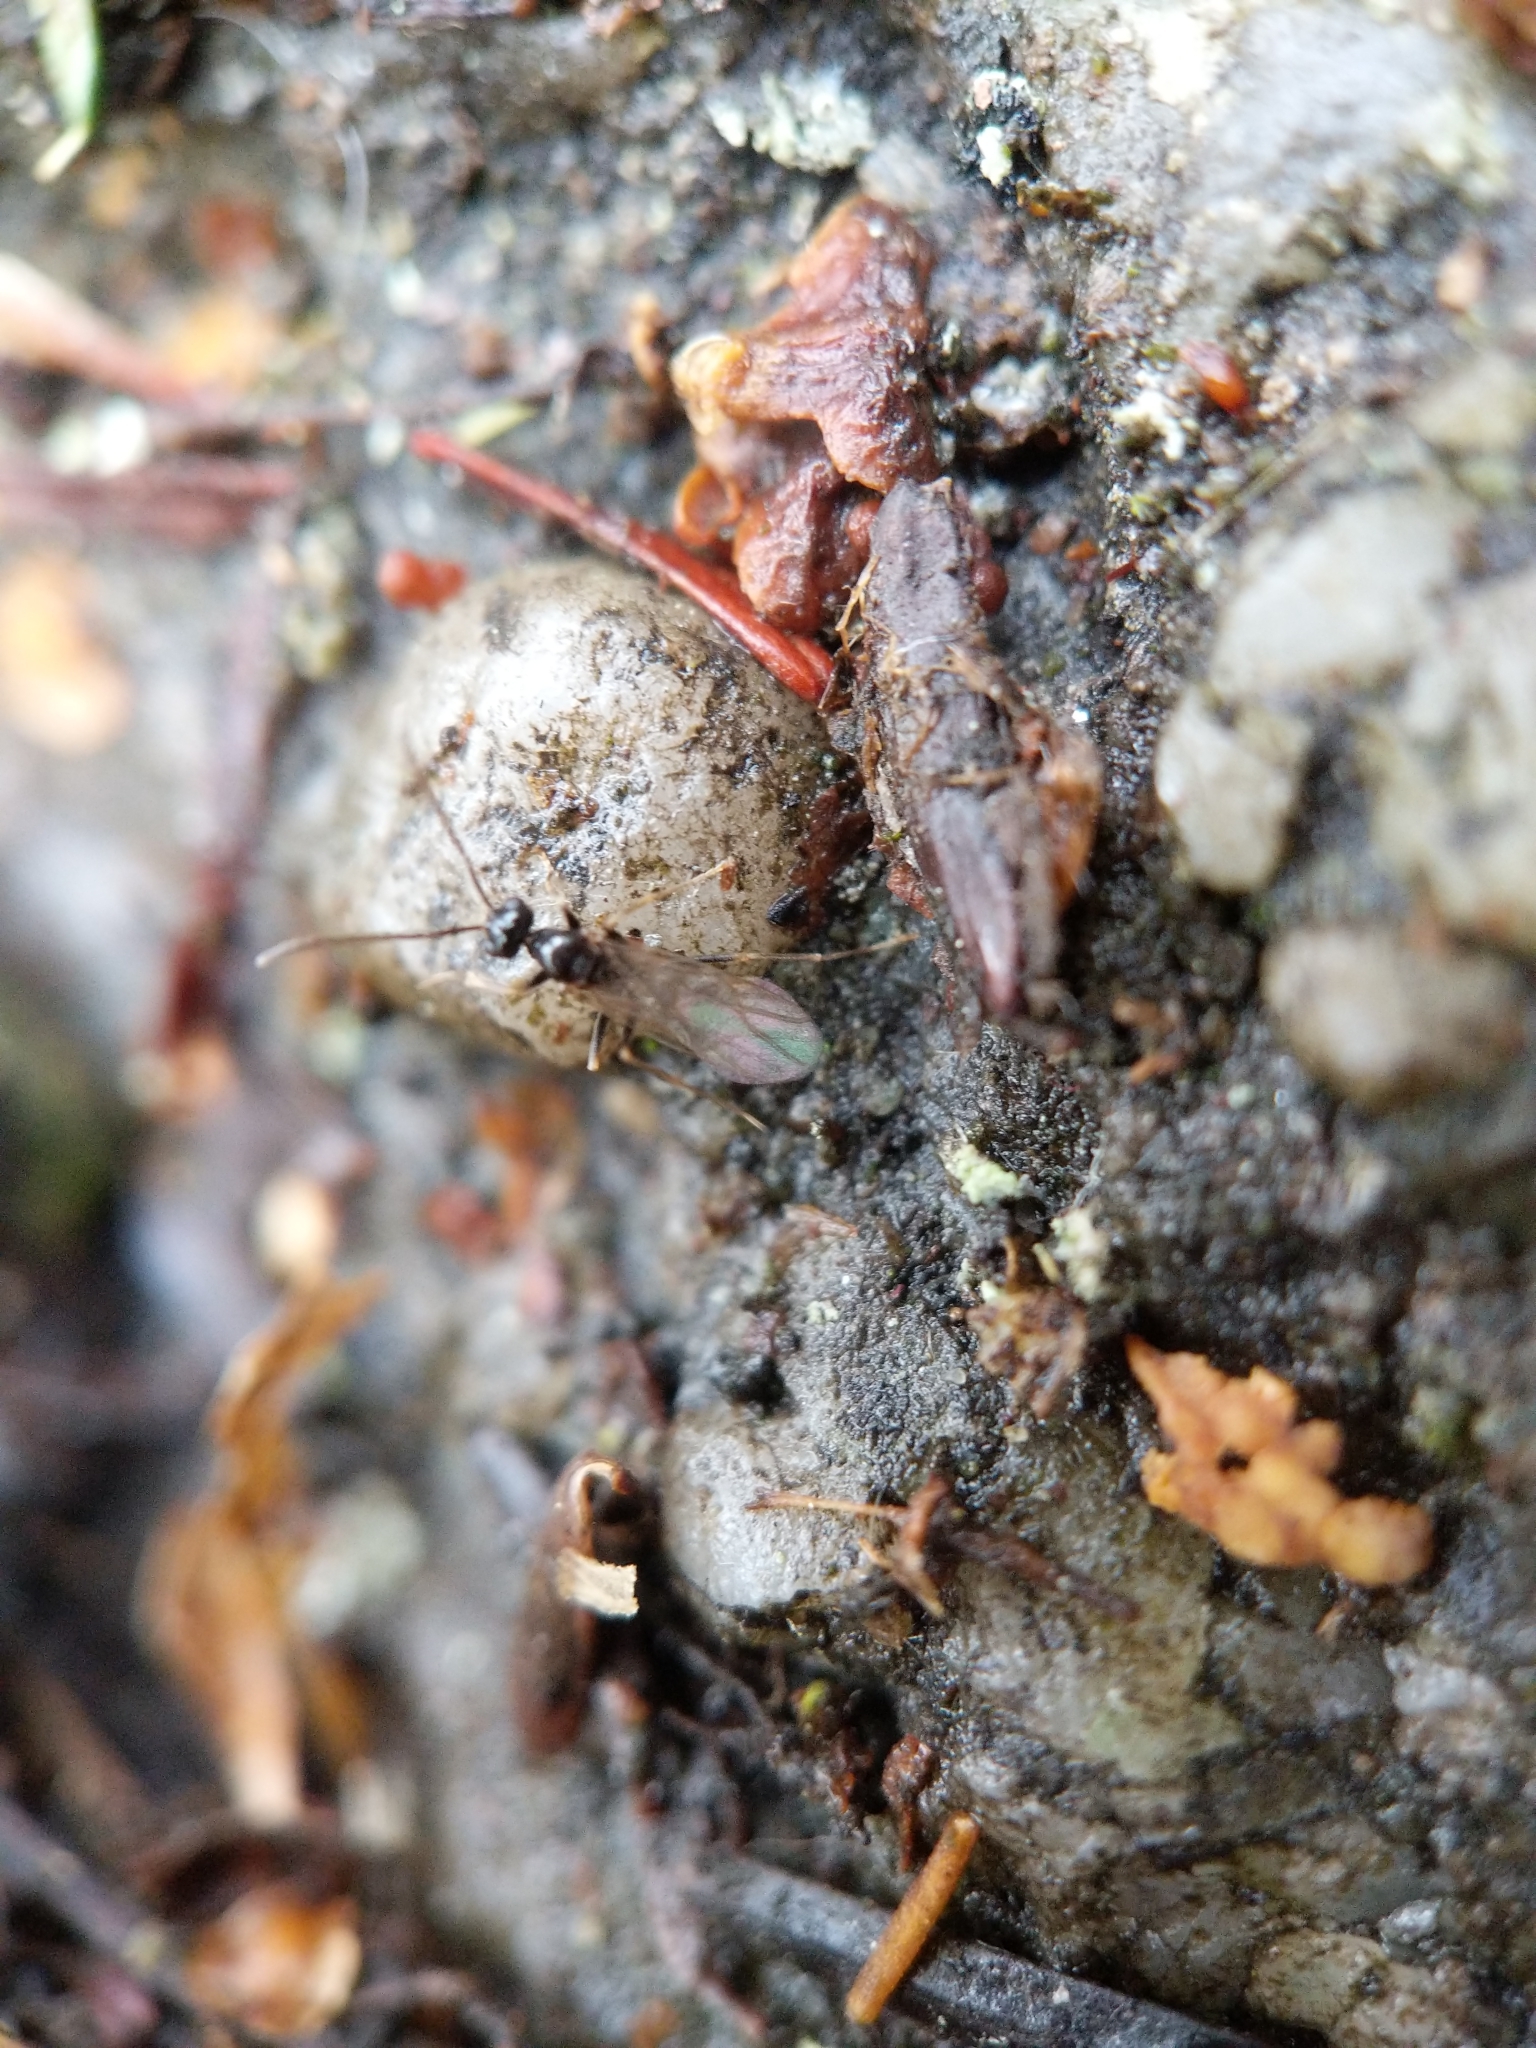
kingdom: Animalia
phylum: Arthropoda
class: Insecta
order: Hymenoptera
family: Formicidae
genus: Prenolepis
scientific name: Prenolepis imparis
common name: Small honey ant
